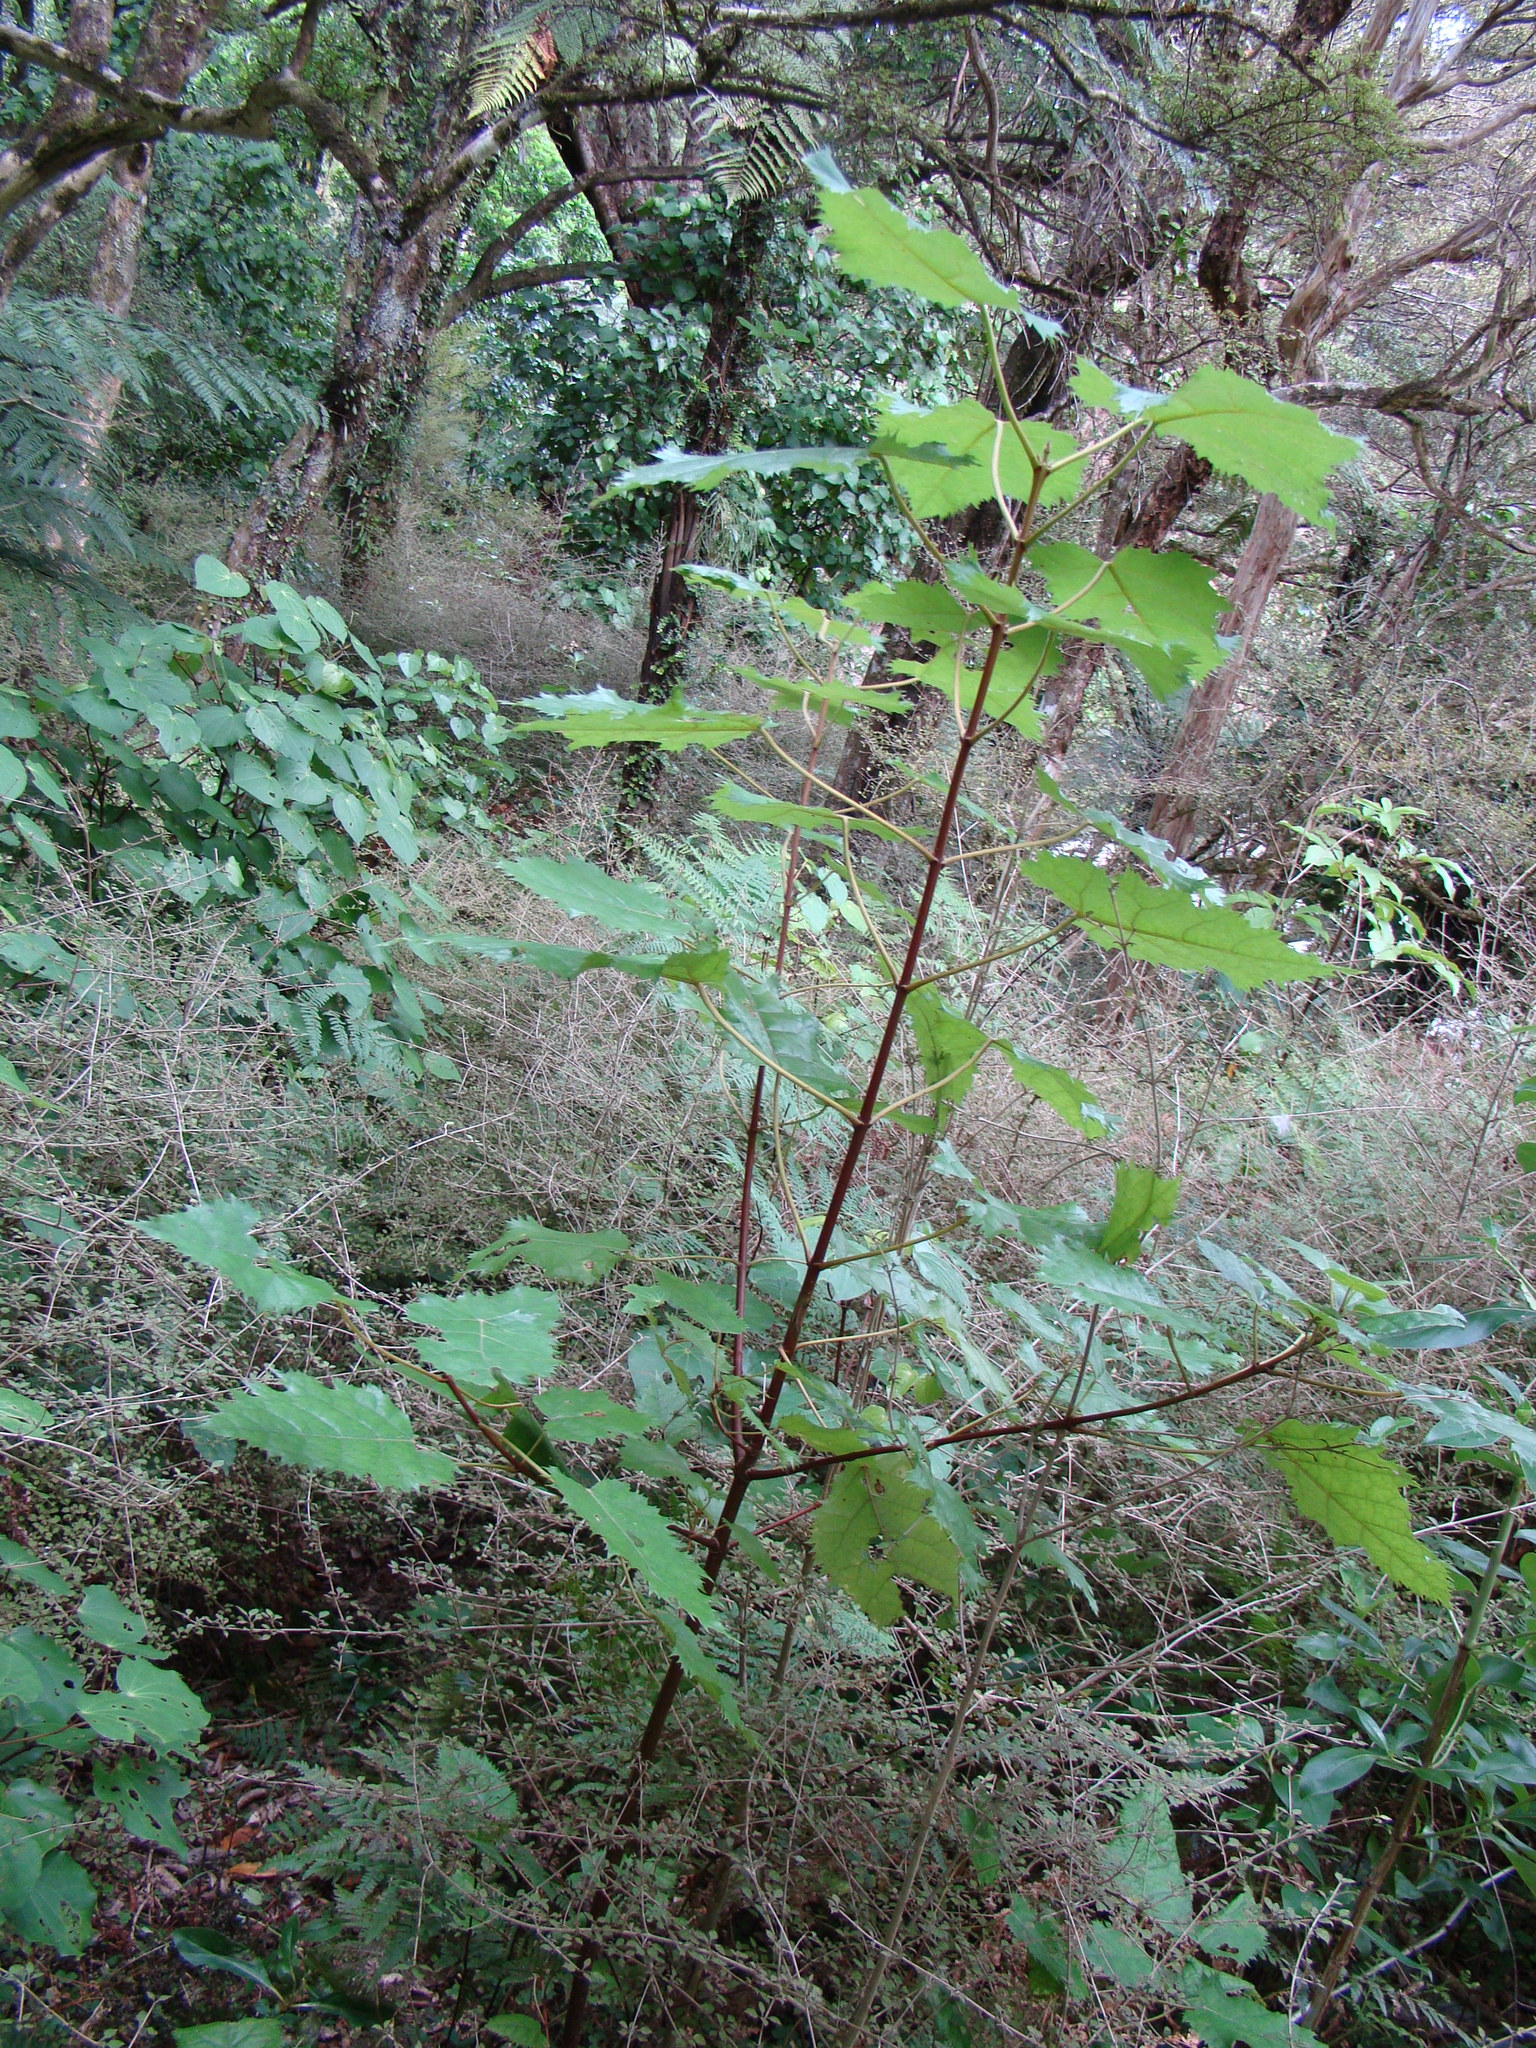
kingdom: Plantae
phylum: Tracheophyta
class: Magnoliopsida
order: Oxalidales
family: Elaeocarpaceae
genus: Aristotelia
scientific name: Aristotelia serrata
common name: New zealand wineberry
